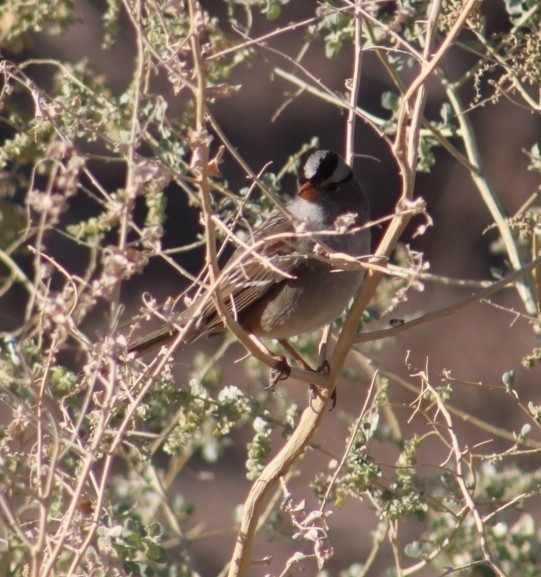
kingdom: Animalia
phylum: Chordata
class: Aves
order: Passeriformes
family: Passerellidae
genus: Zonotrichia
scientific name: Zonotrichia leucophrys
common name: White-crowned sparrow
